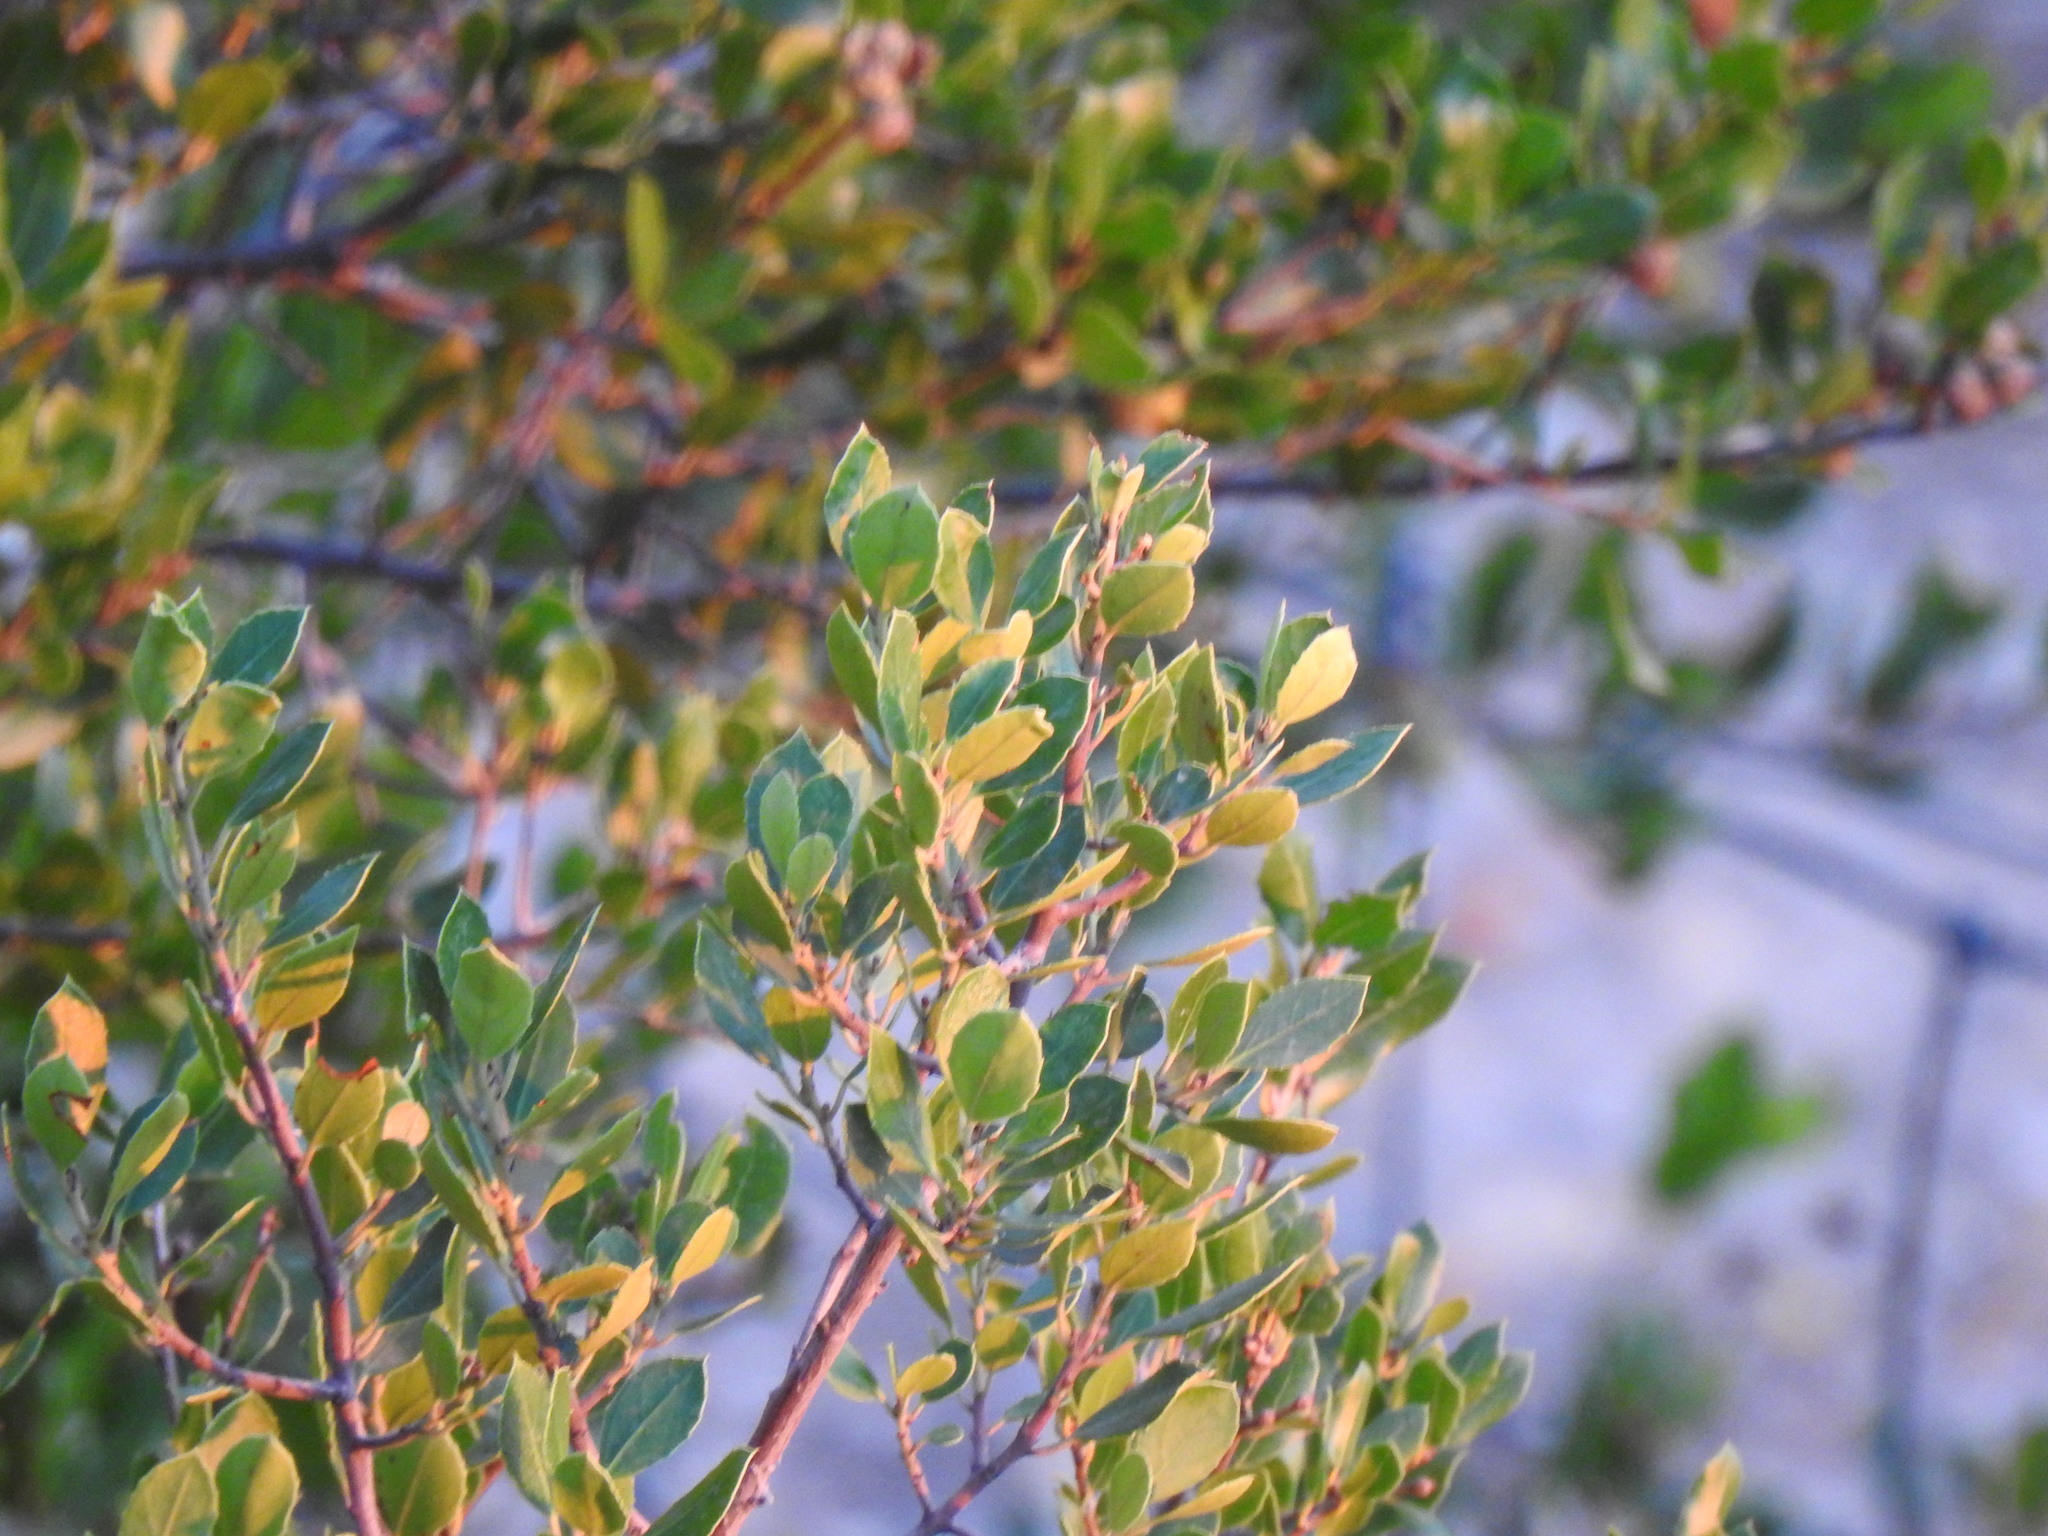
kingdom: Plantae
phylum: Tracheophyta
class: Magnoliopsida
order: Rosales
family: Rhamnaceae
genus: Rhamnus
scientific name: Rhamnus alaternus
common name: Mediterranean buckthorn
